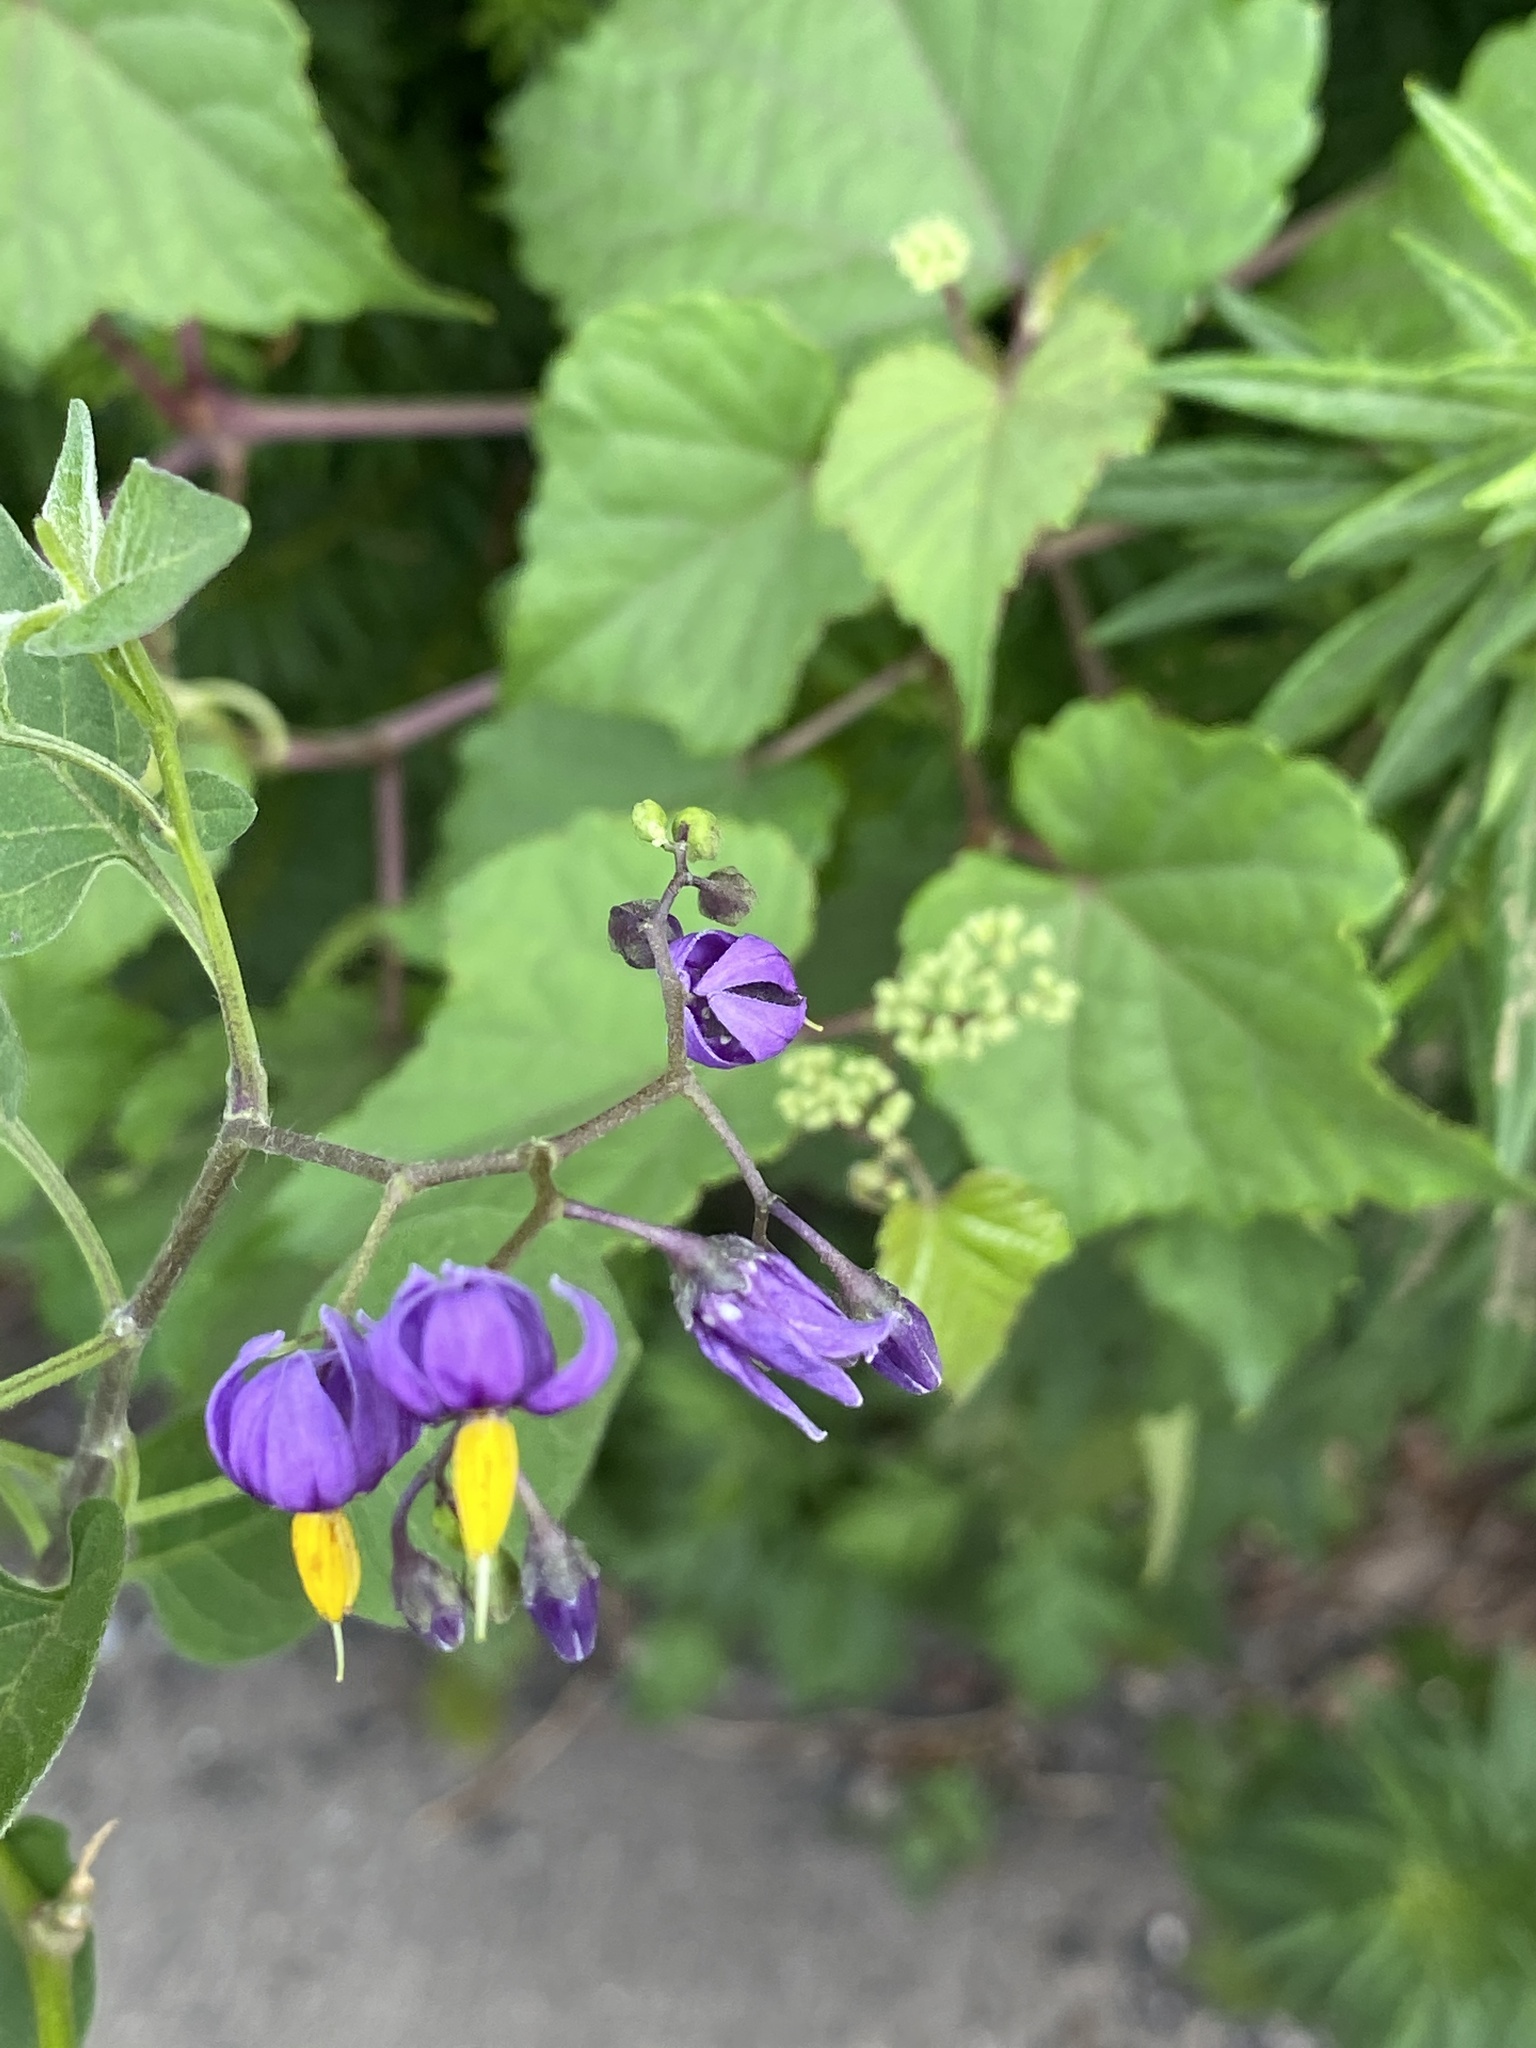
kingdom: Plantae
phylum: Tracheophyta
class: Magnoliopsida
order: Solanales
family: Solanaceae
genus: Solanum
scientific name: Solanum dulcamara
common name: Climbing nightshade
